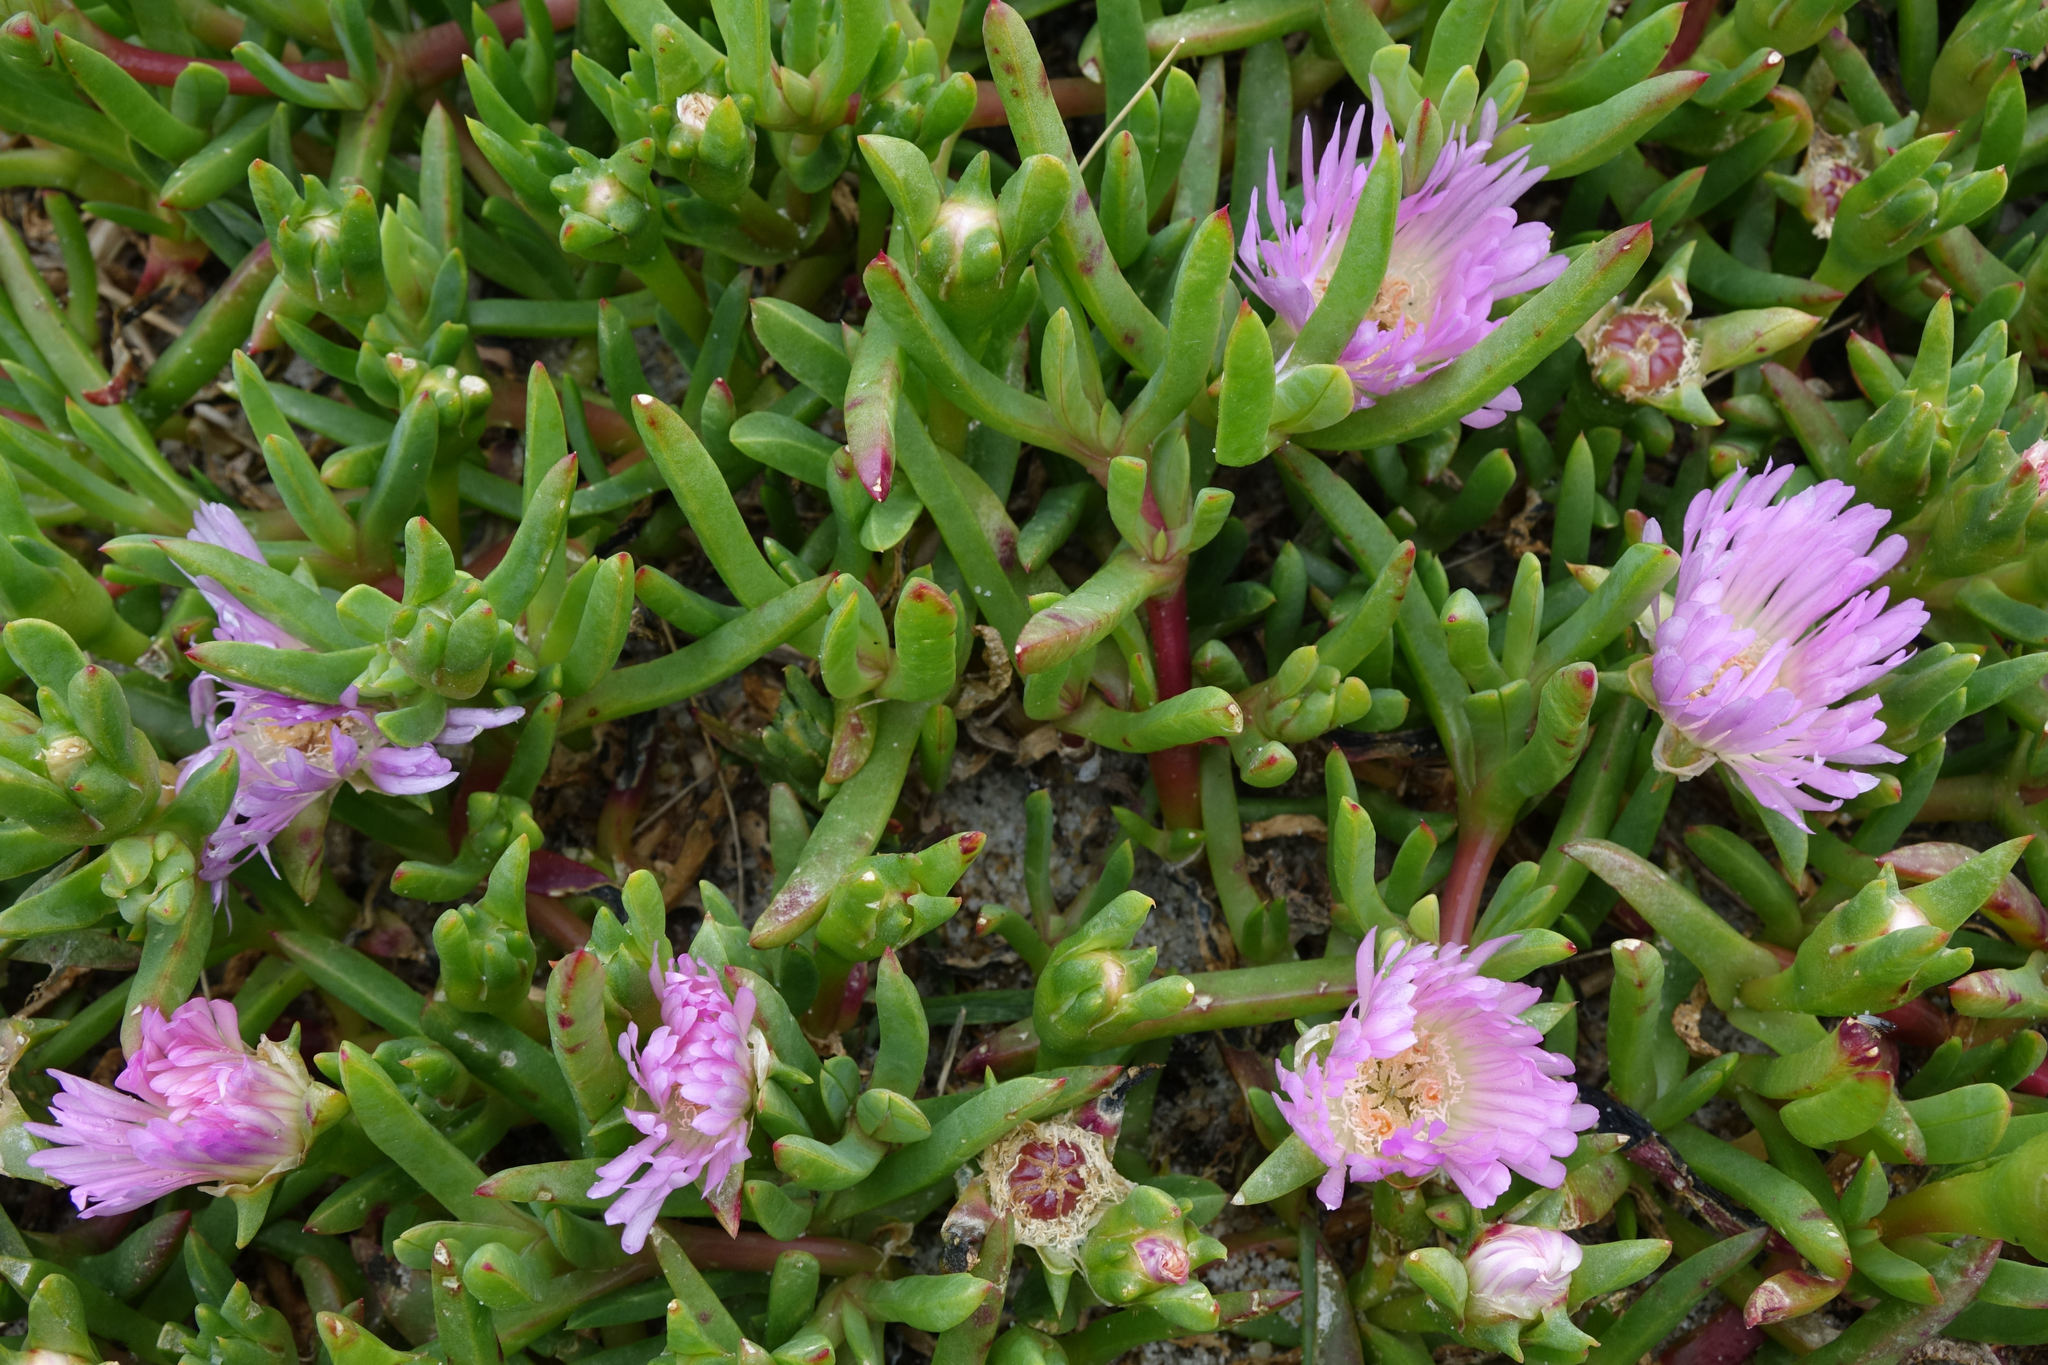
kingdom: Plantae
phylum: Tracheophyta
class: Magnoliopsida
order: Caryophyllales
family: Aizoaceae
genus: Disphyma
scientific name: Disphyma australe
